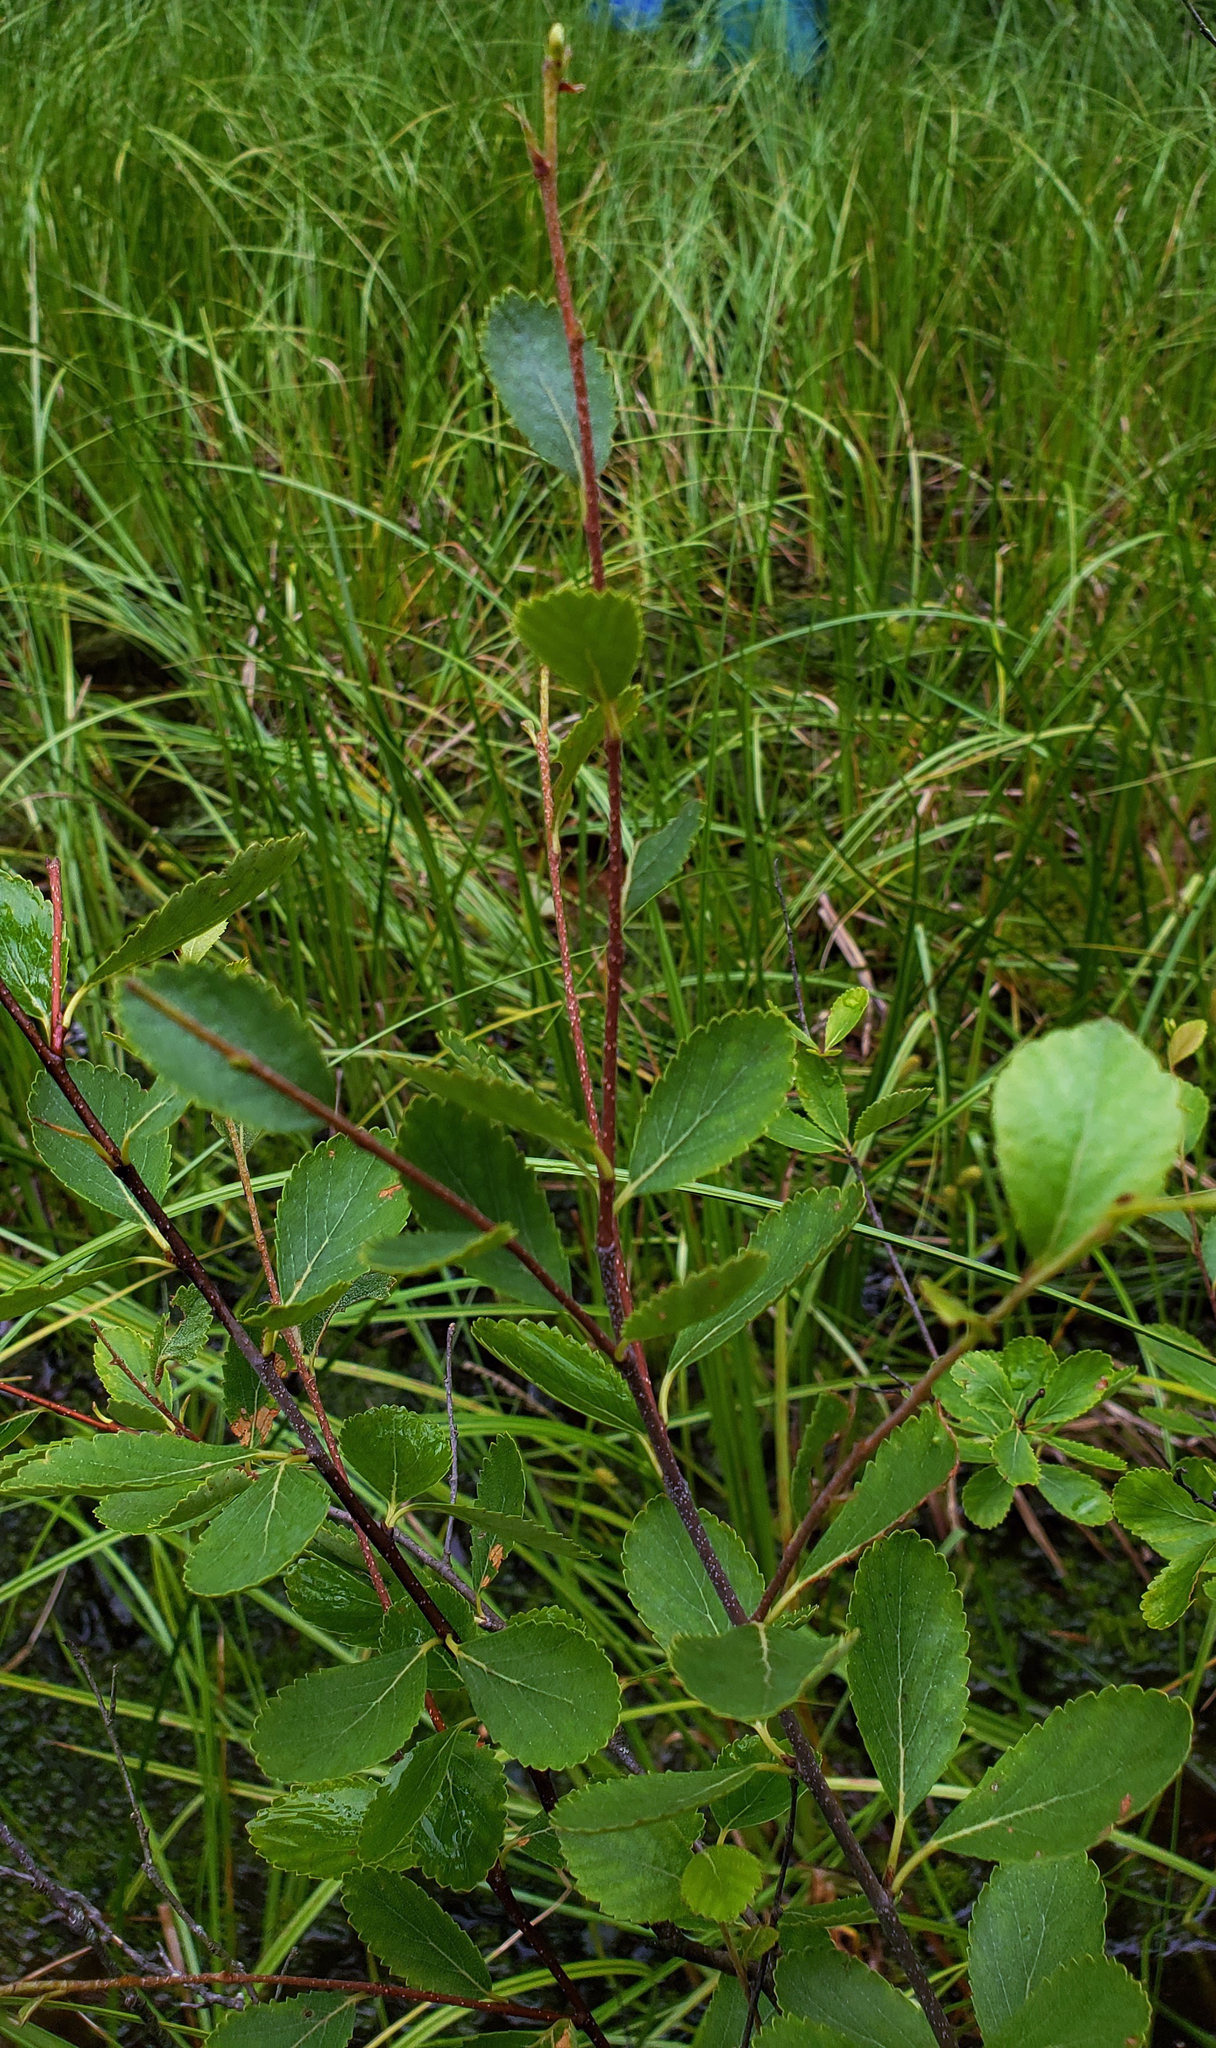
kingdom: Plantae
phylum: Tracheophyta
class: Magnoliopsida
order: Fagales
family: Betulaceae
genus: Betula
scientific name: Betula pumila
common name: Bog birch
